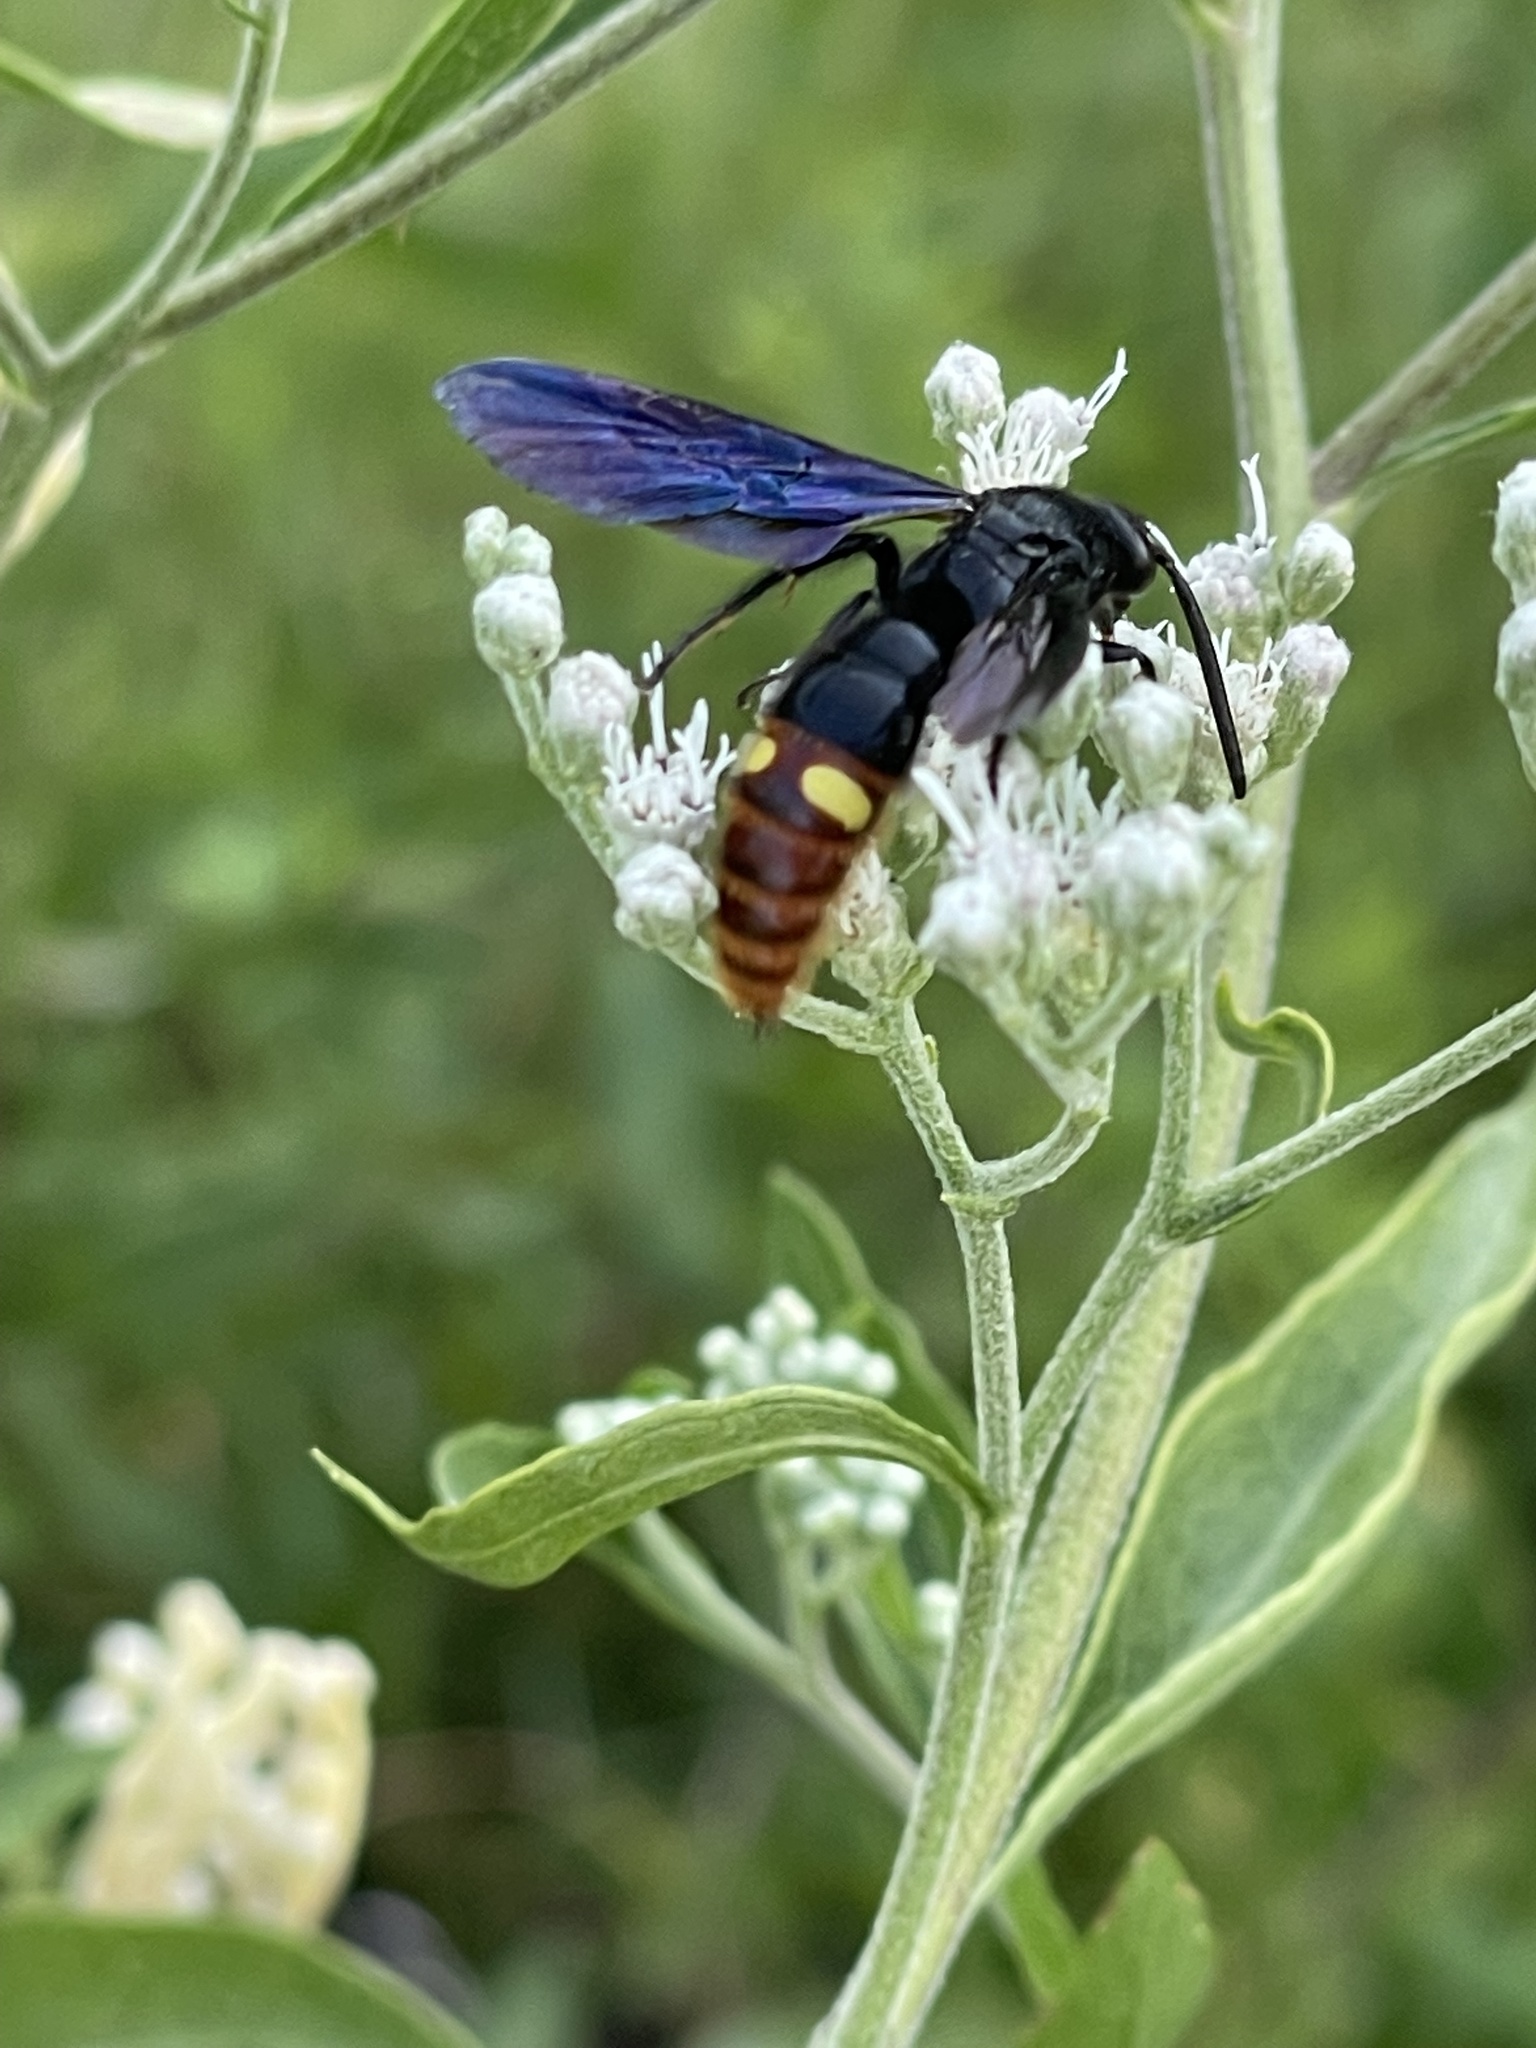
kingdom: Animalia
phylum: Arthropoda
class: Insecta
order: Hymenoptera
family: Scoliidae
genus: Scolia
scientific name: Scolia dubia
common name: Blue-winged scoliid wasp
